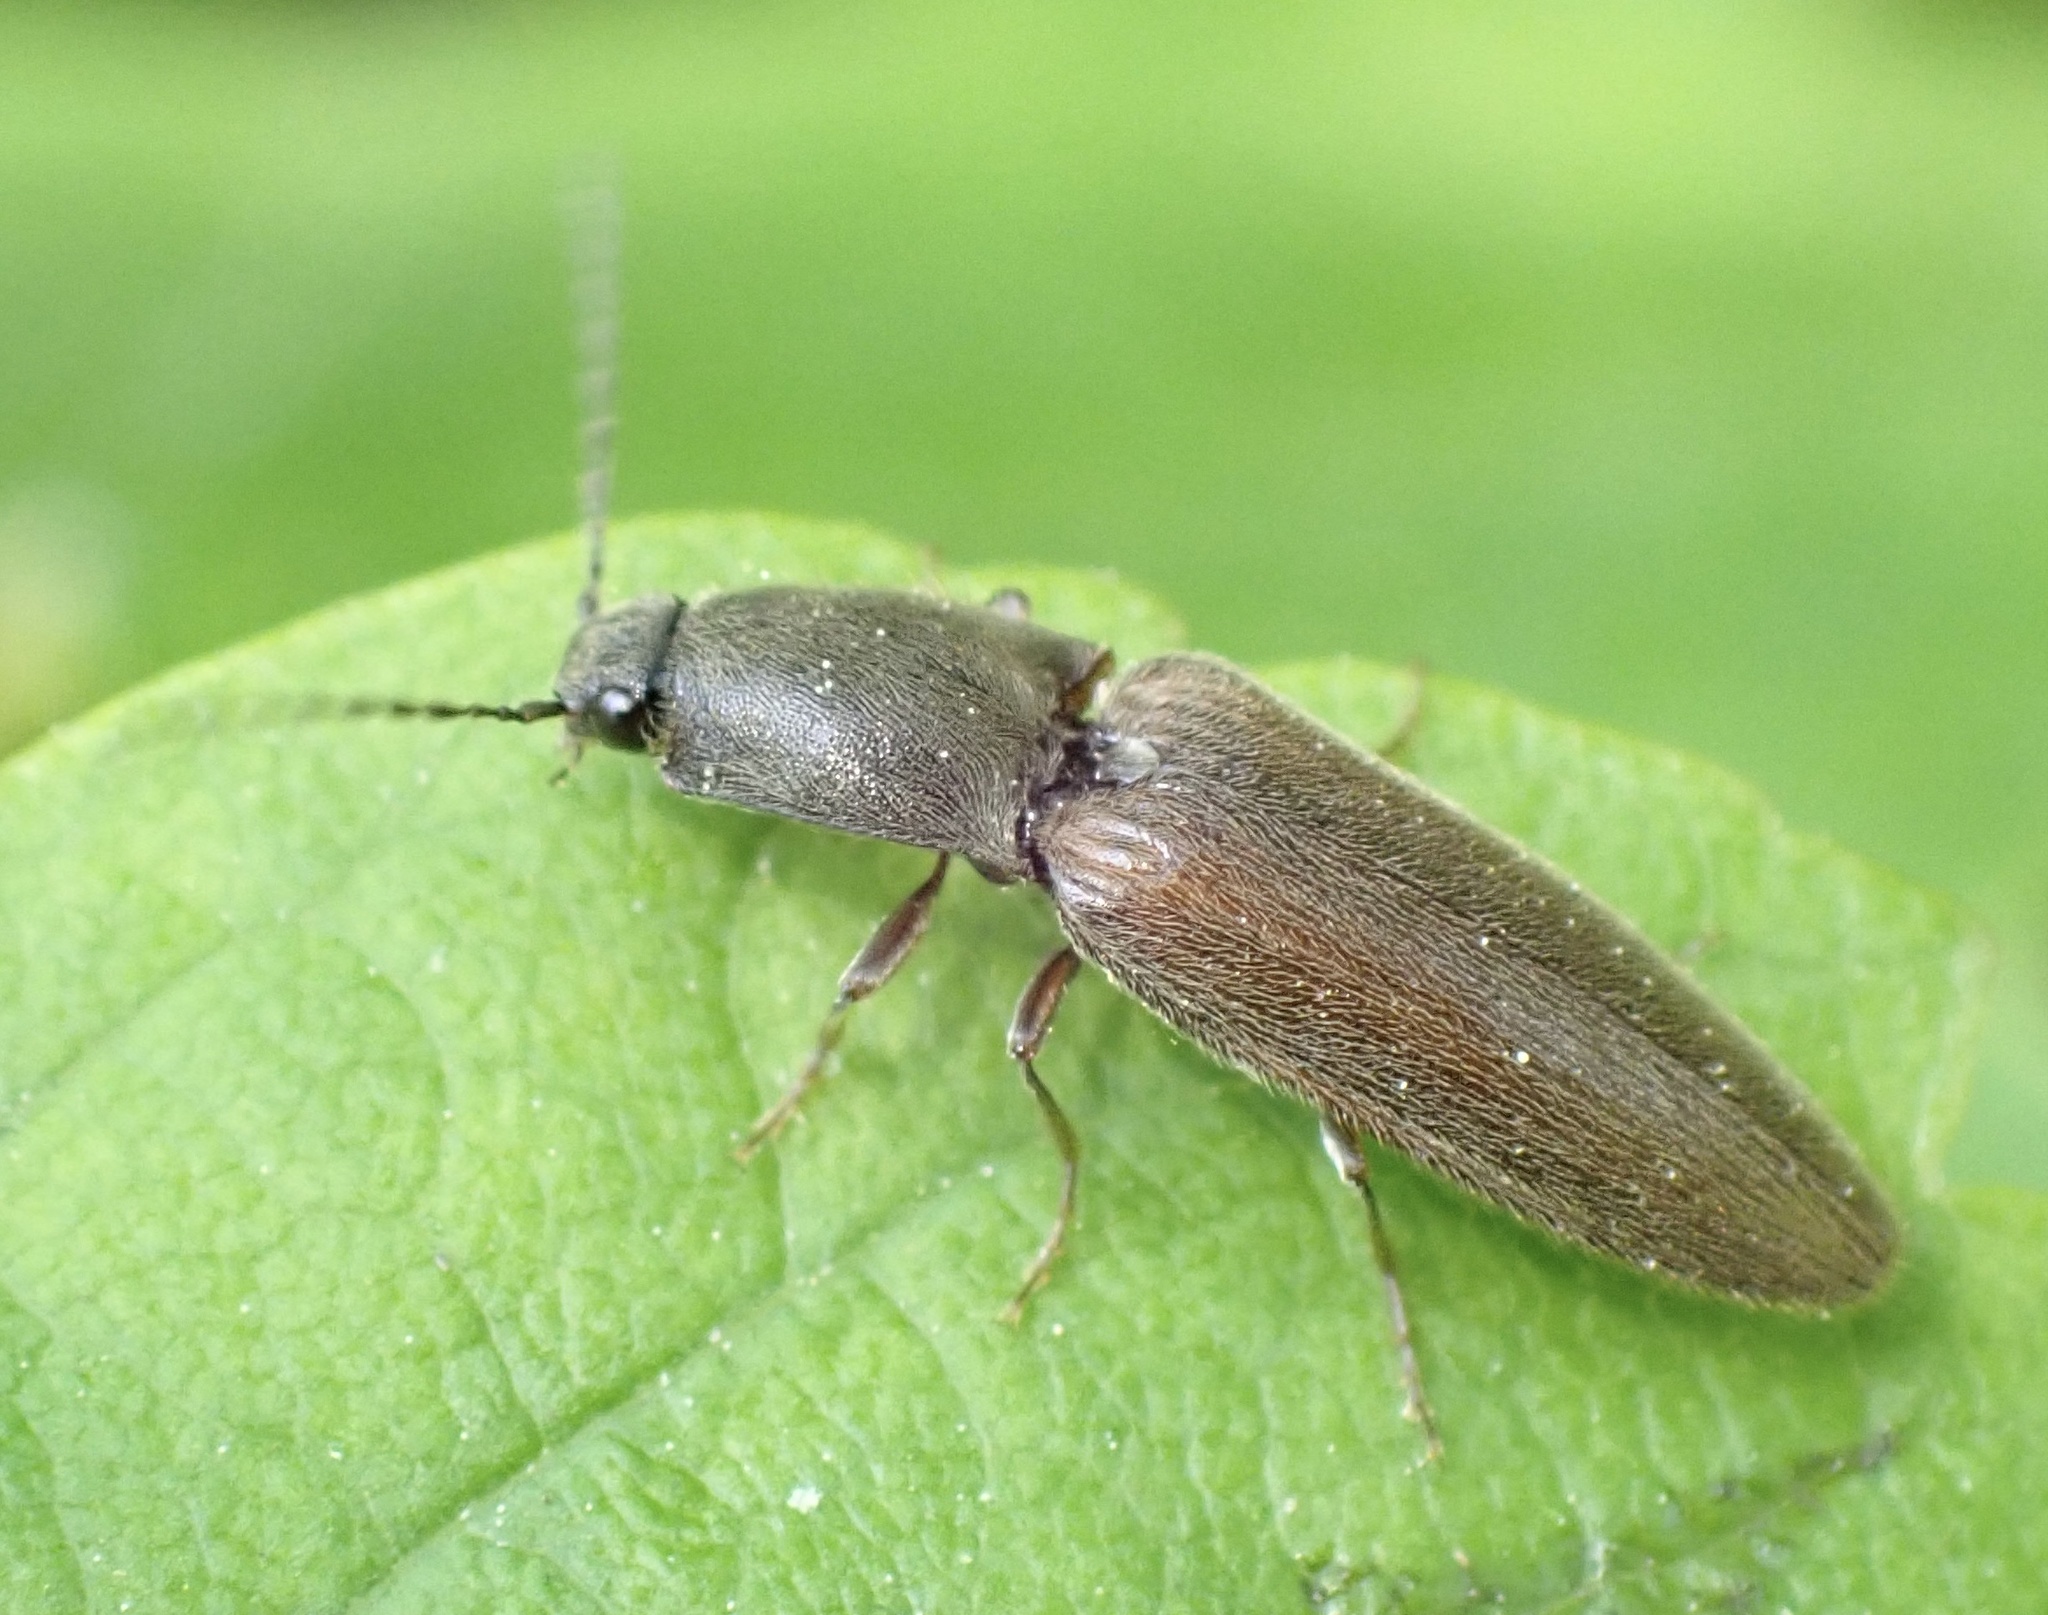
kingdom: Animalia
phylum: Arthropoda
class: Insecta
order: Coleoptera
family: Elateridae
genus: Athous
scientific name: Athous haemorrhoidalis
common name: Red-brown click beetle
